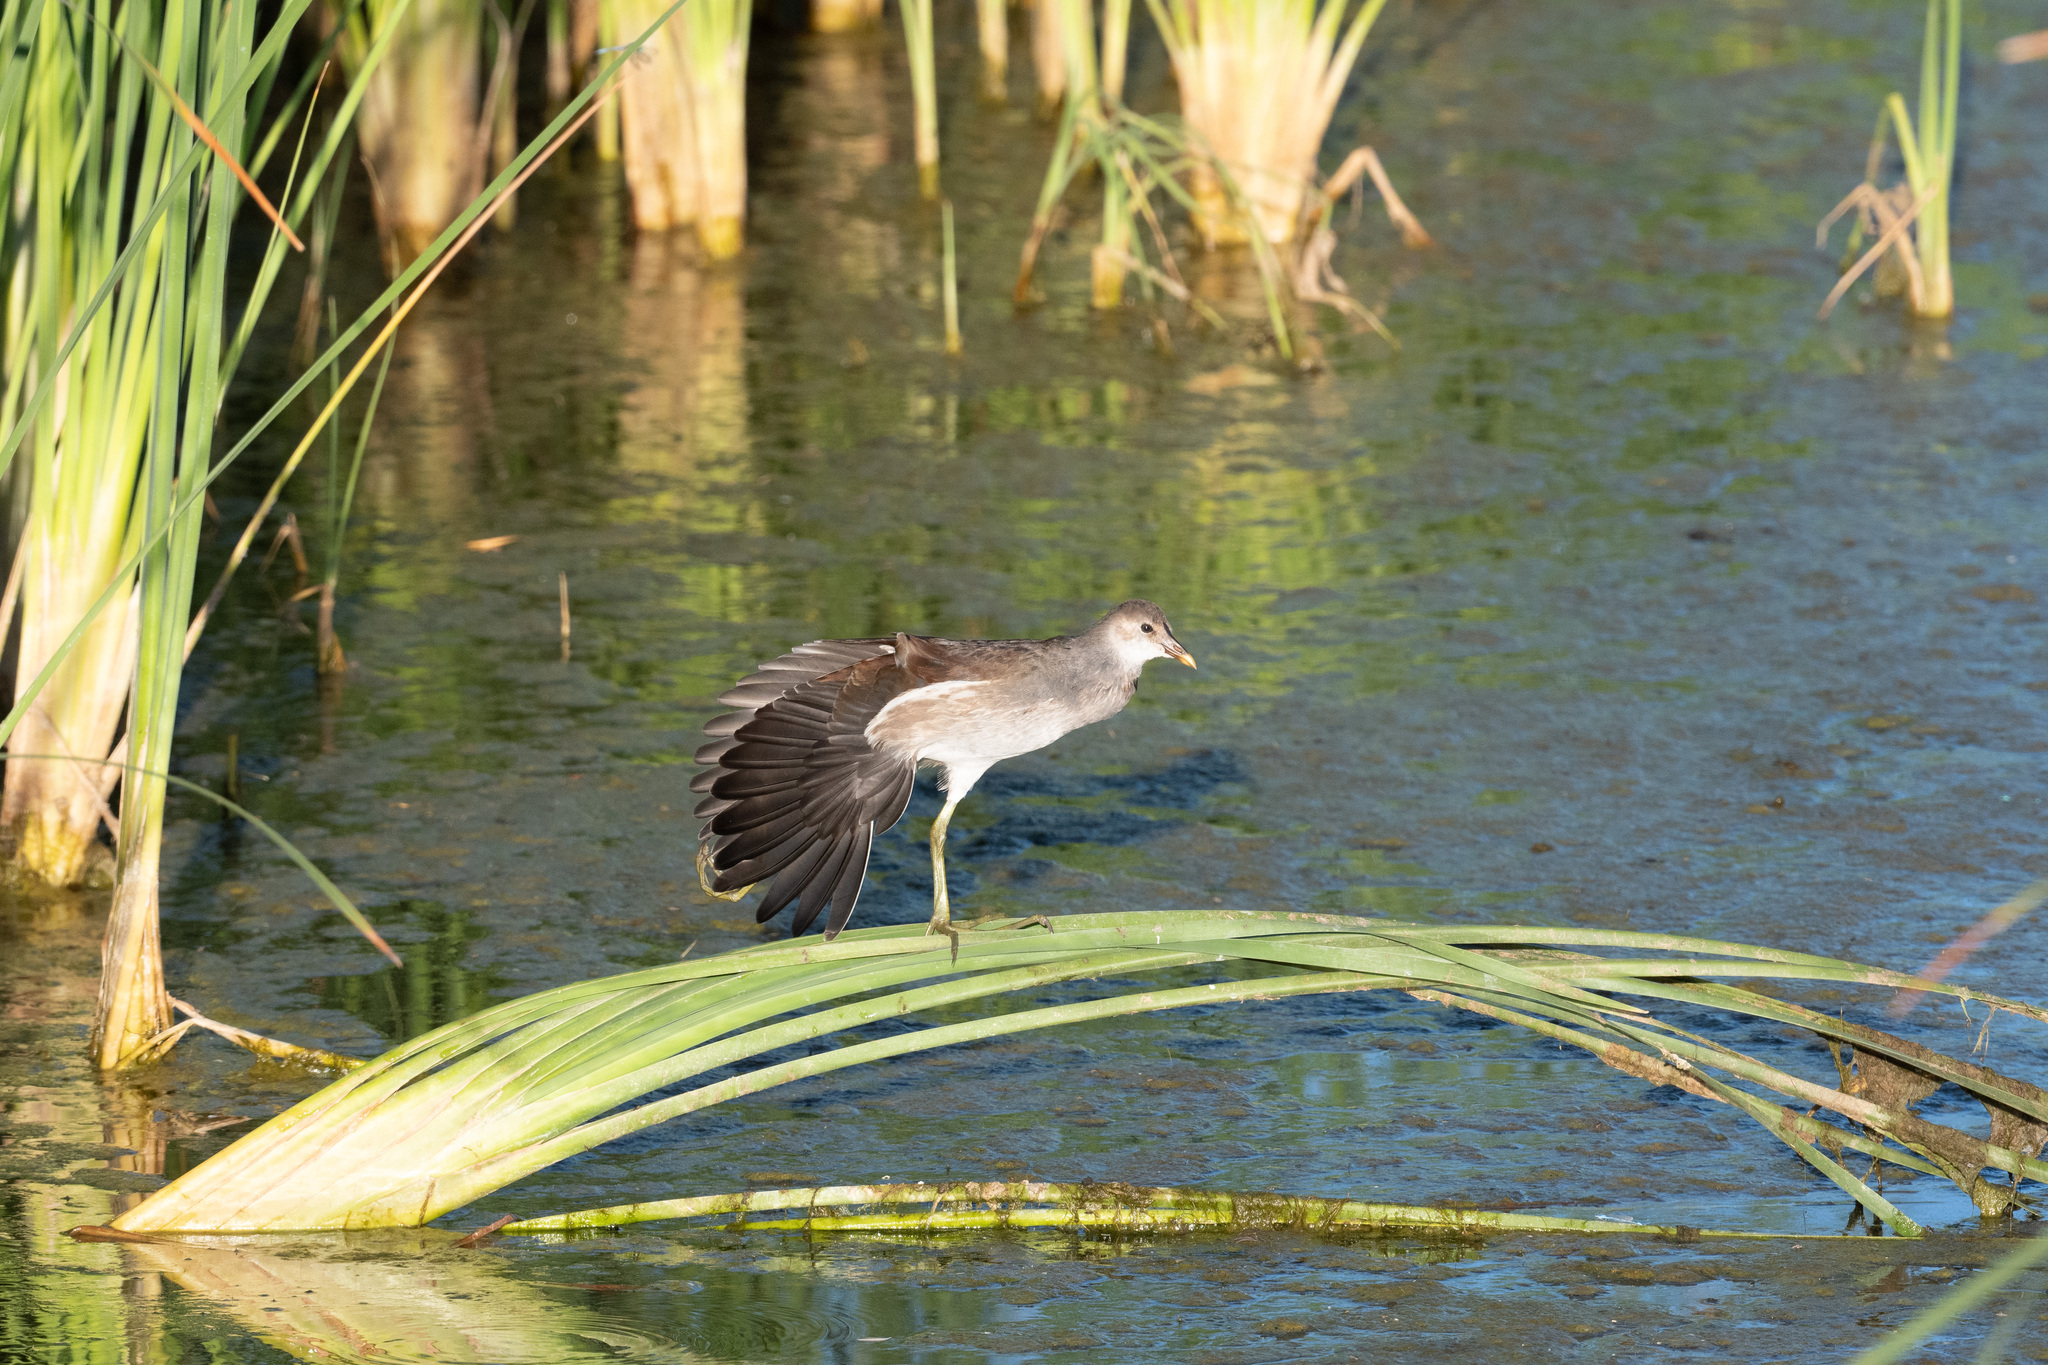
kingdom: Animalia
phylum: Chordata
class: Aves
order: Gruiformes
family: Rallidae
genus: Gallinula
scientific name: Gallinula chloropus
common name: Common moorhen
